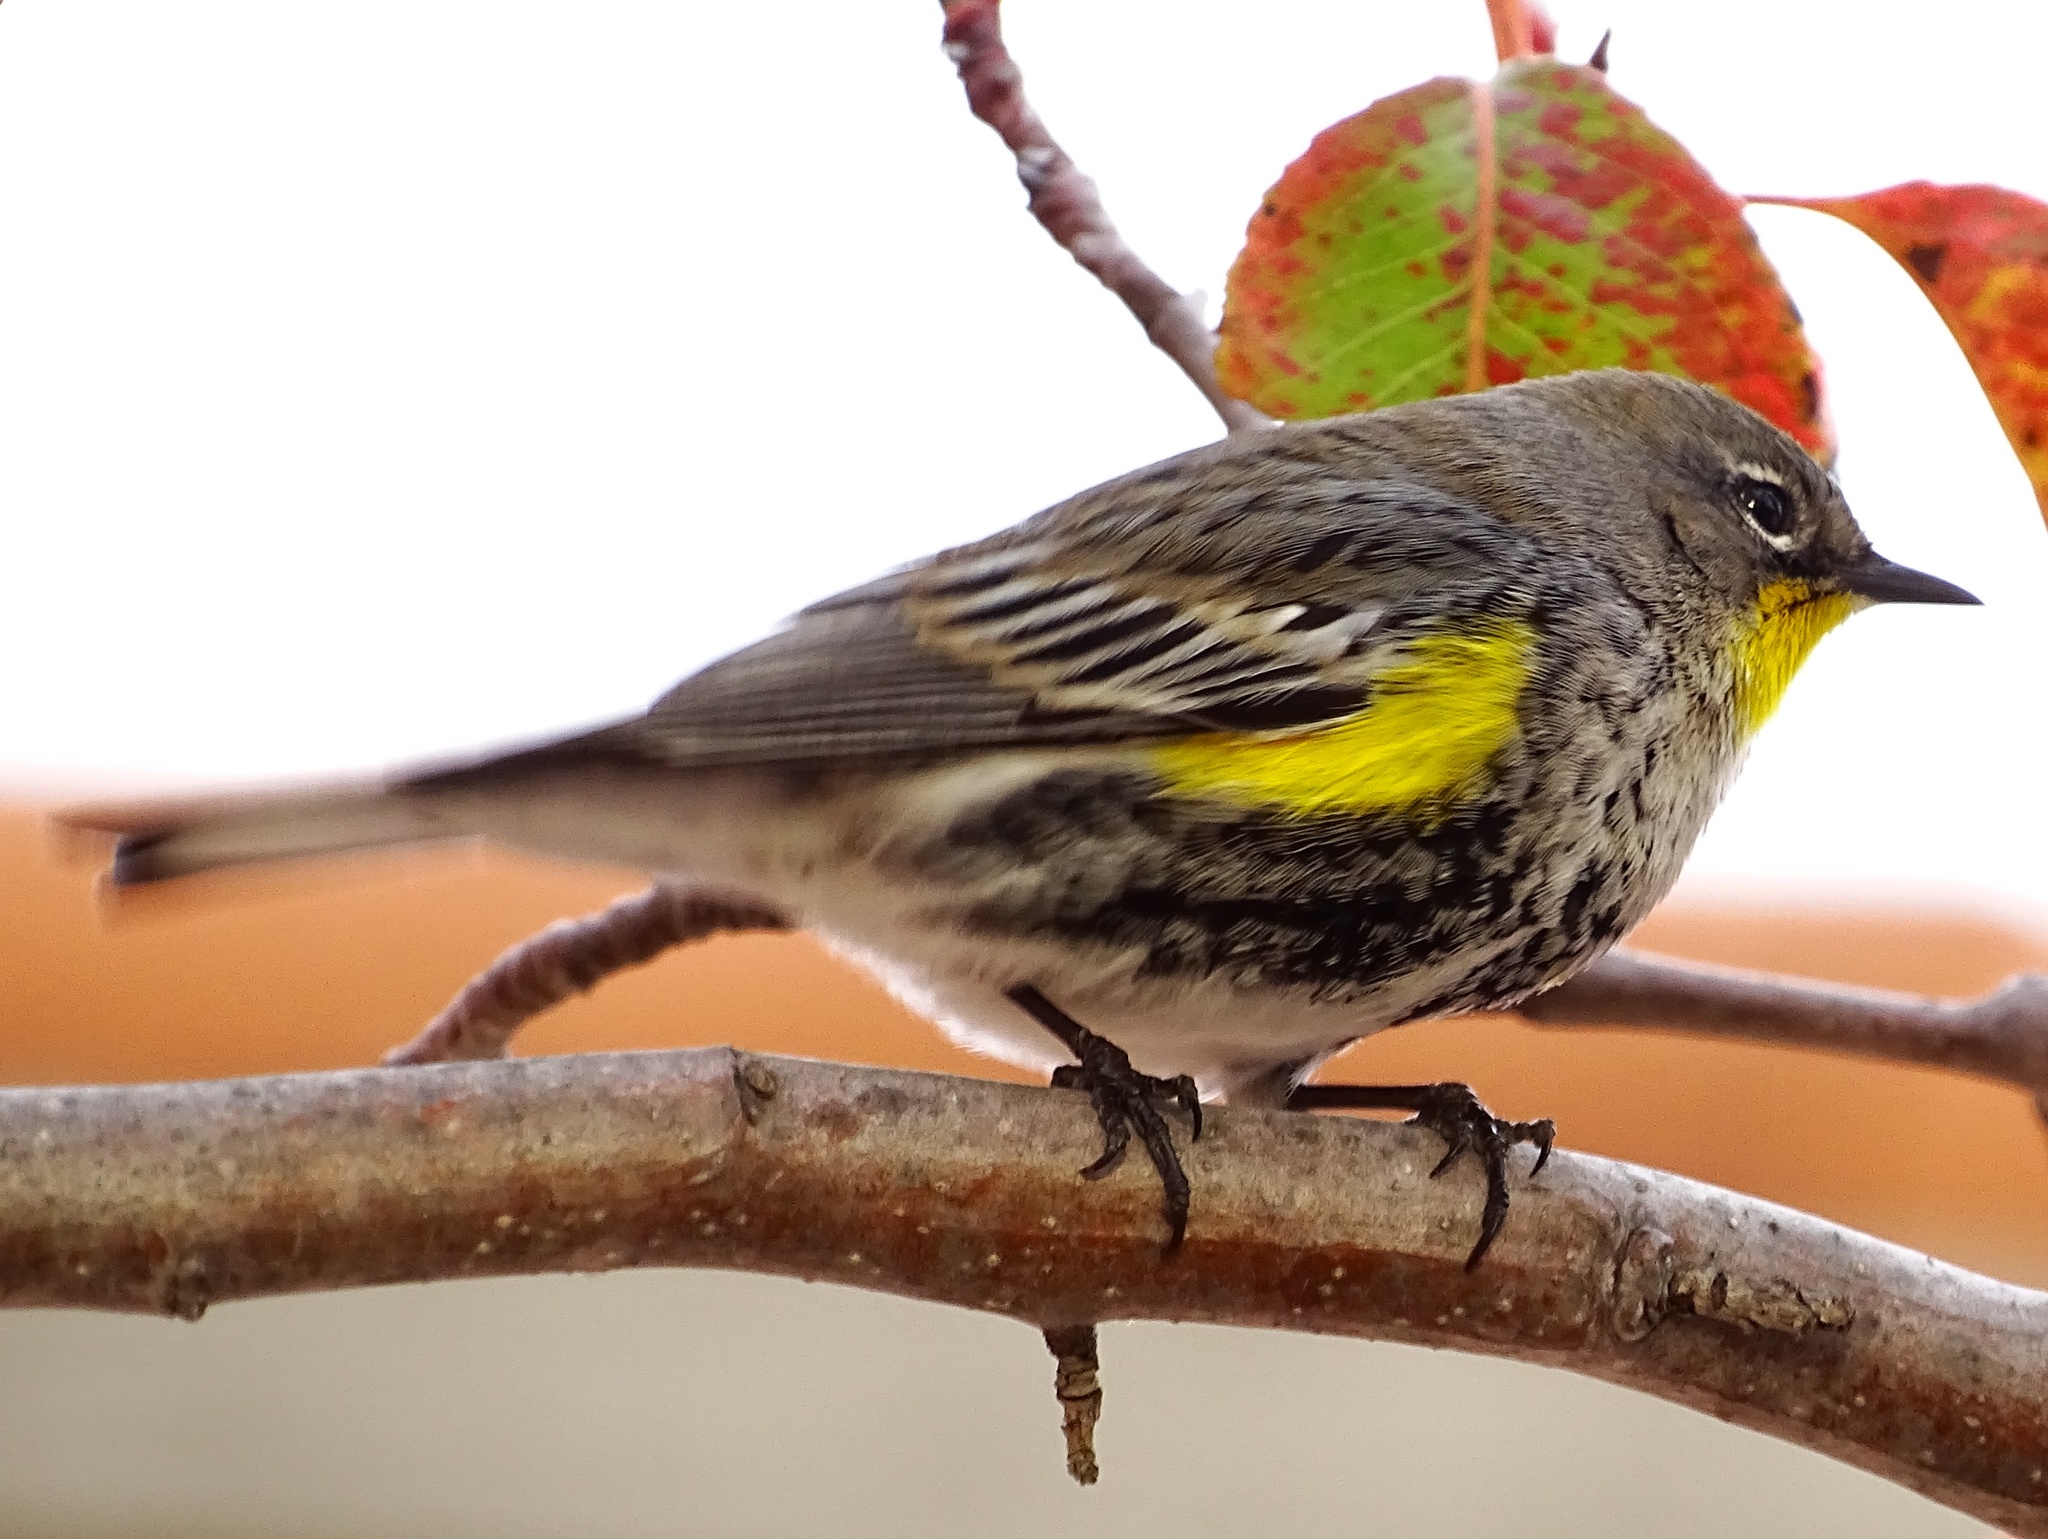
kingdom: Animalia
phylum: Chordata
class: Aves
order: Passeriformes
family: Parulidae
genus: Setophaga
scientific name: Setophaga coronata
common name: Myrtle warbler
